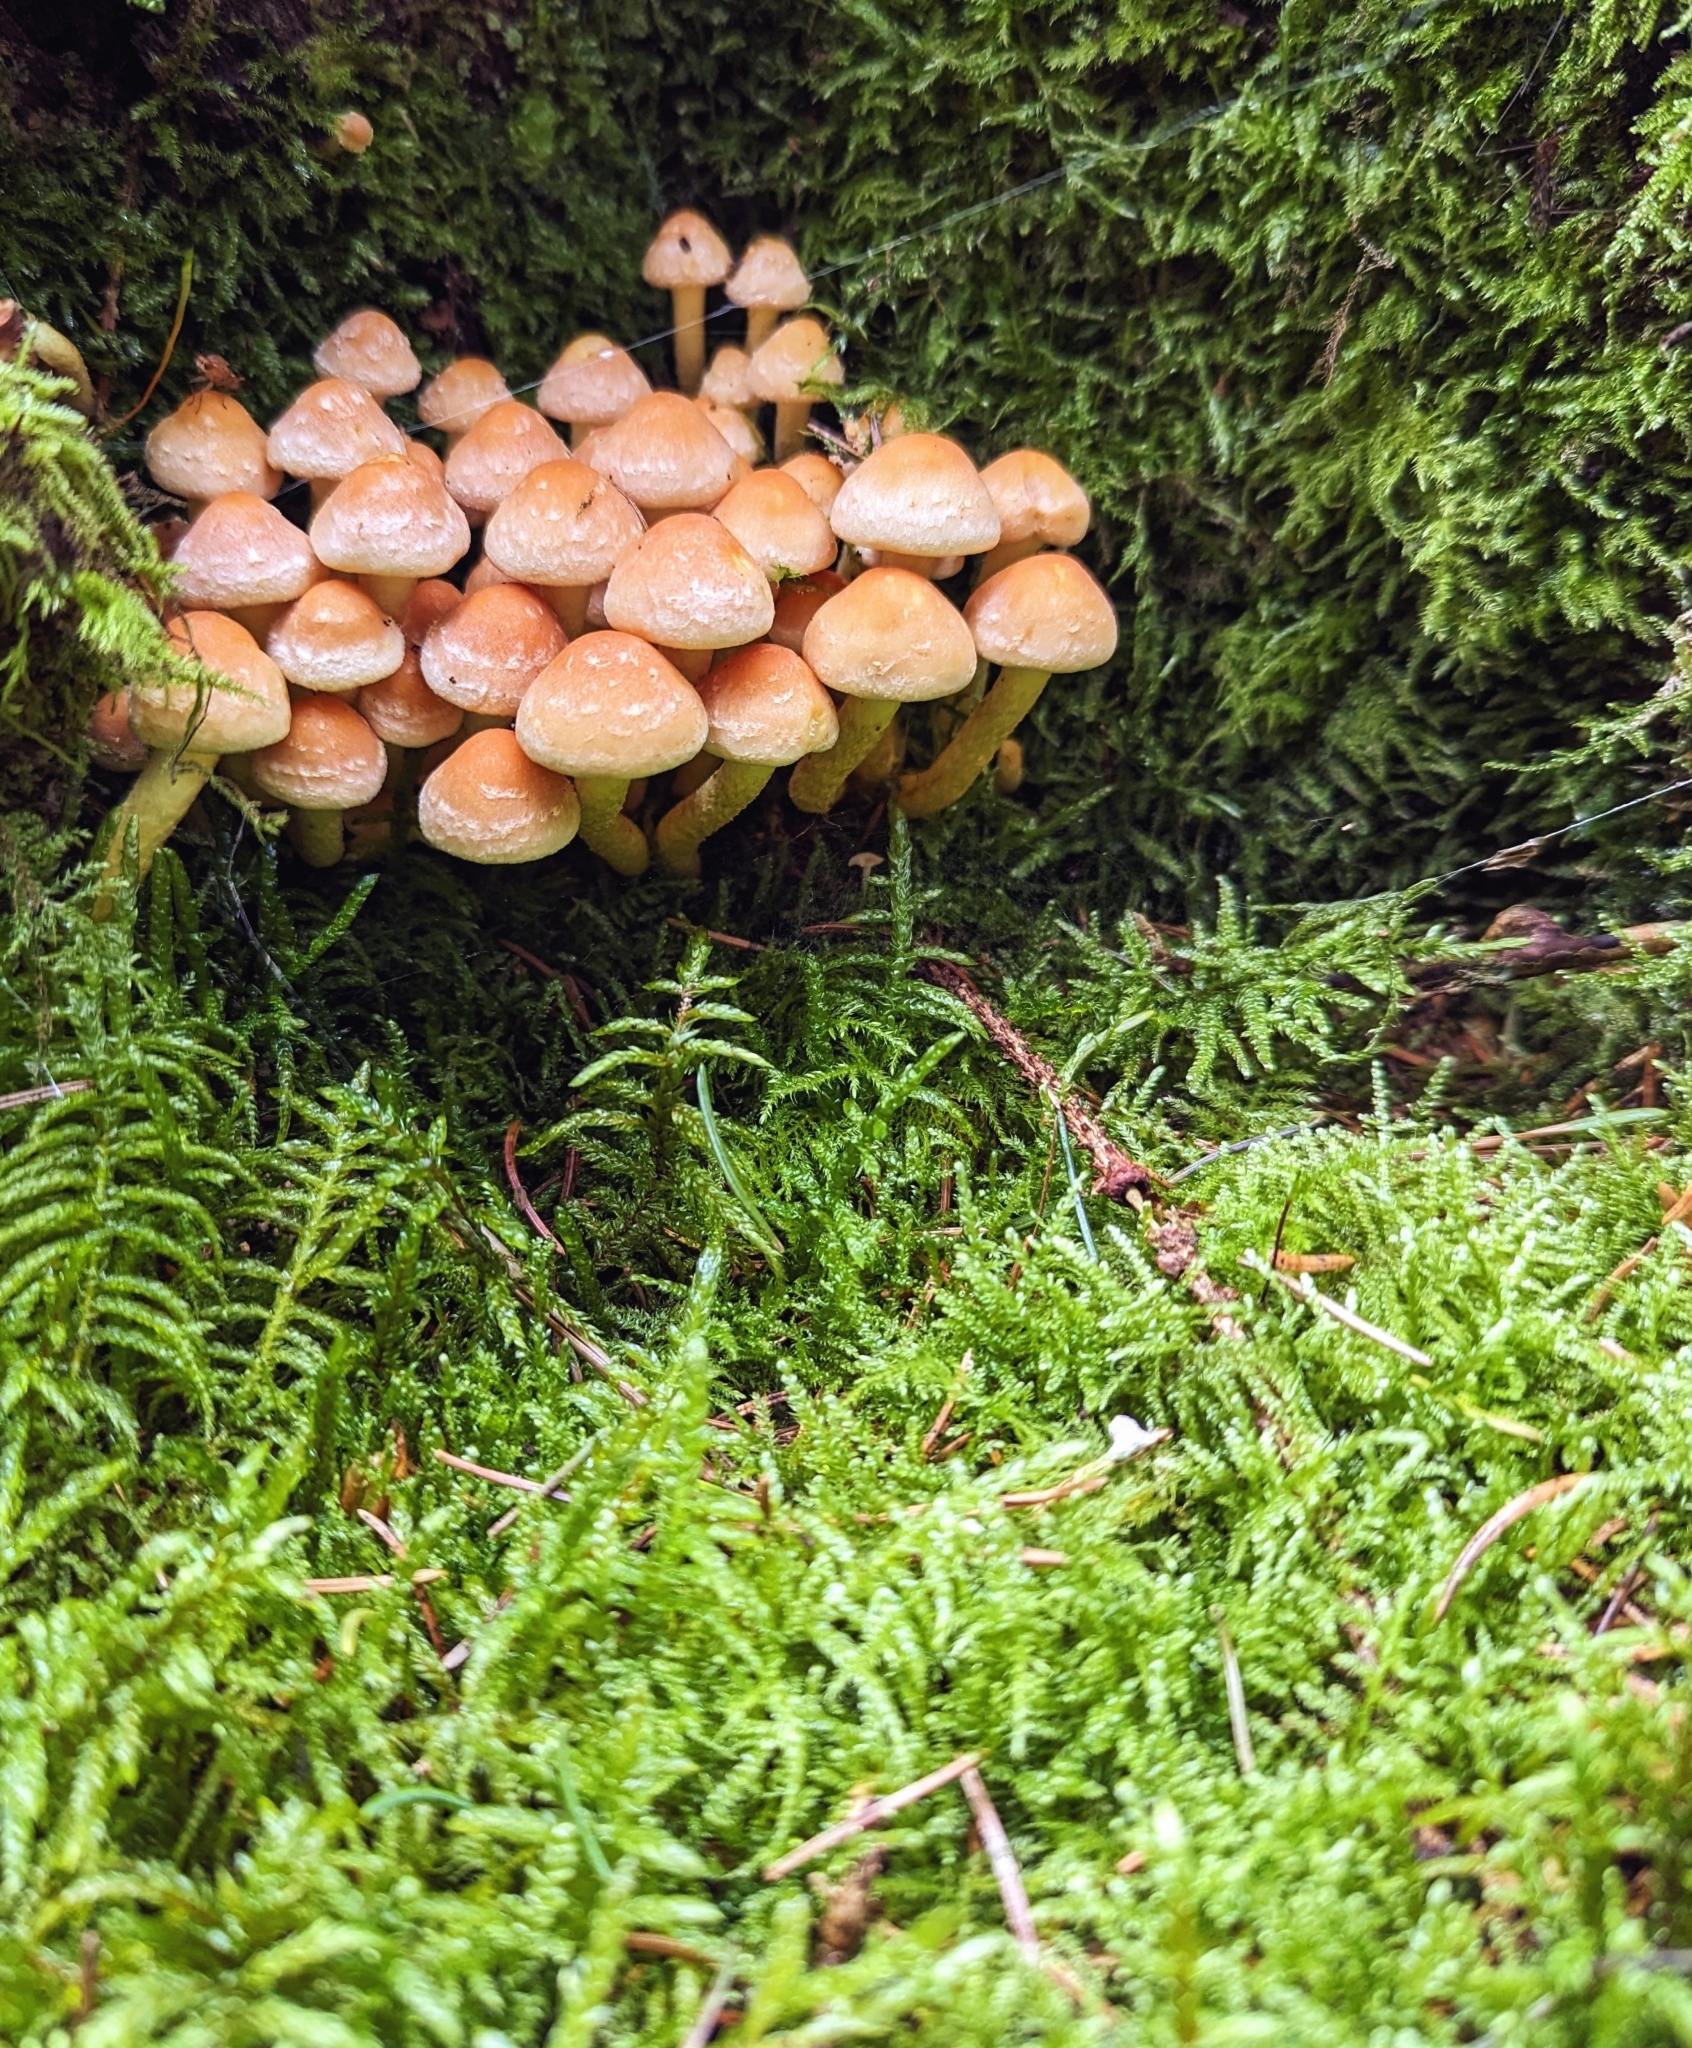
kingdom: Fungi
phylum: Basidiomycota
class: Agaricomycetes
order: Agaricales
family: Strophariaceae
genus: Hypholoma
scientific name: Hypholoma lateritium
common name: Brick caps
